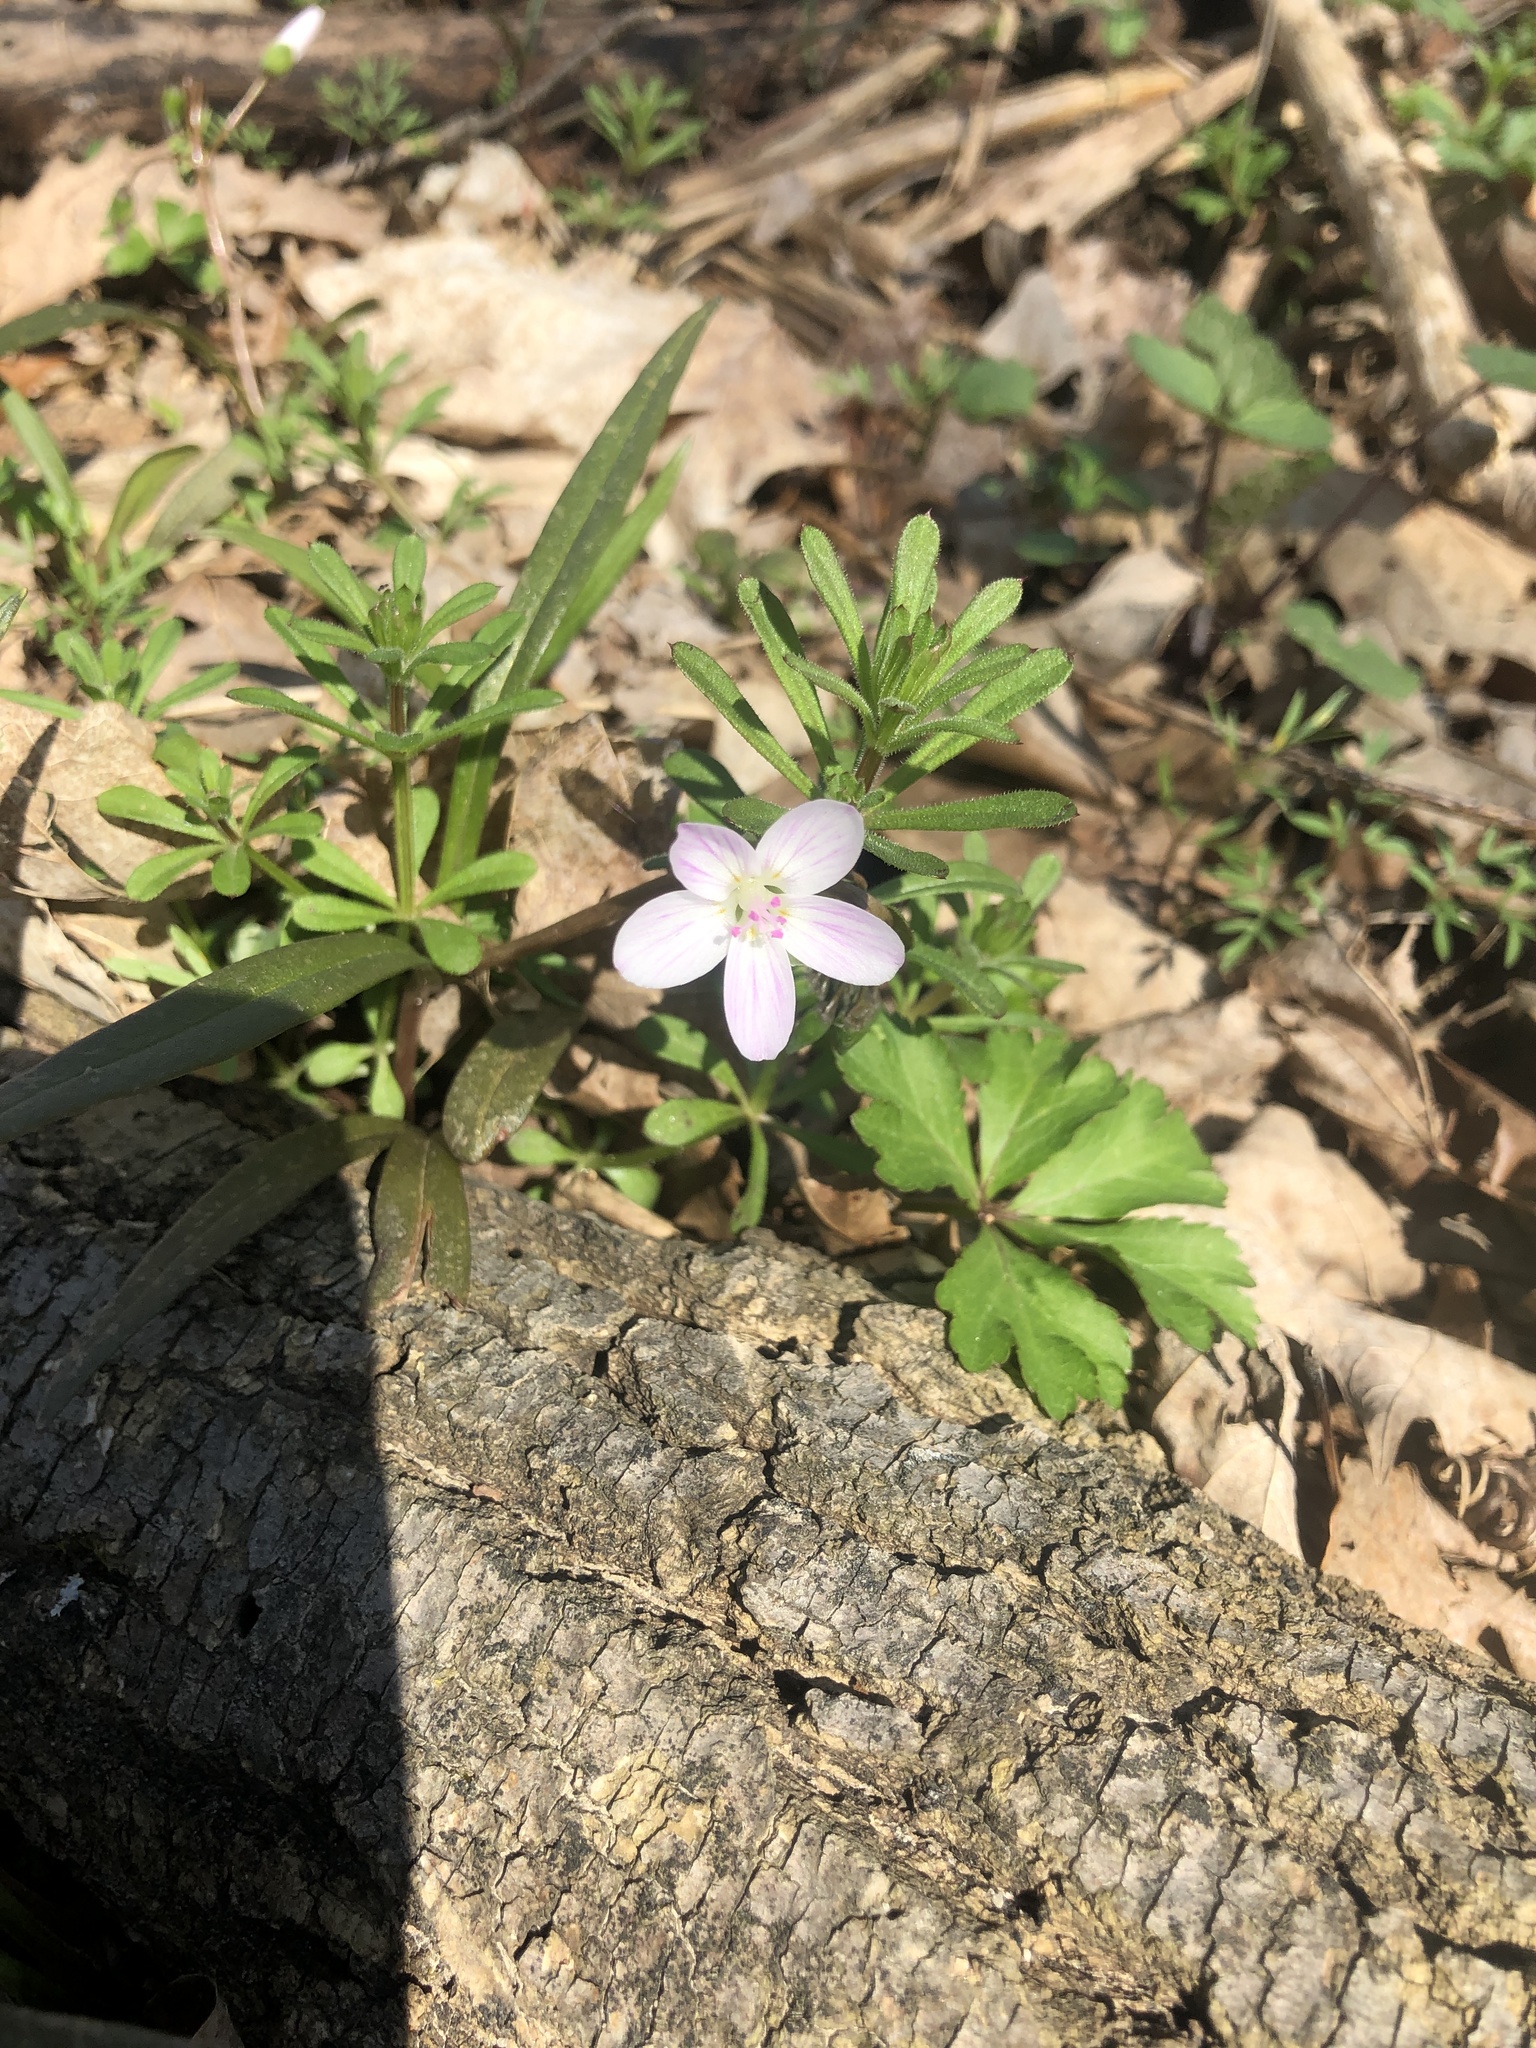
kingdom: Plantae
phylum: Tracheophyta
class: Magnoliopsida
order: Caryophyllales
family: Montiaceae
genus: Claytonia
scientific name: Claytonia virginica
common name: Virginia springbeauty
